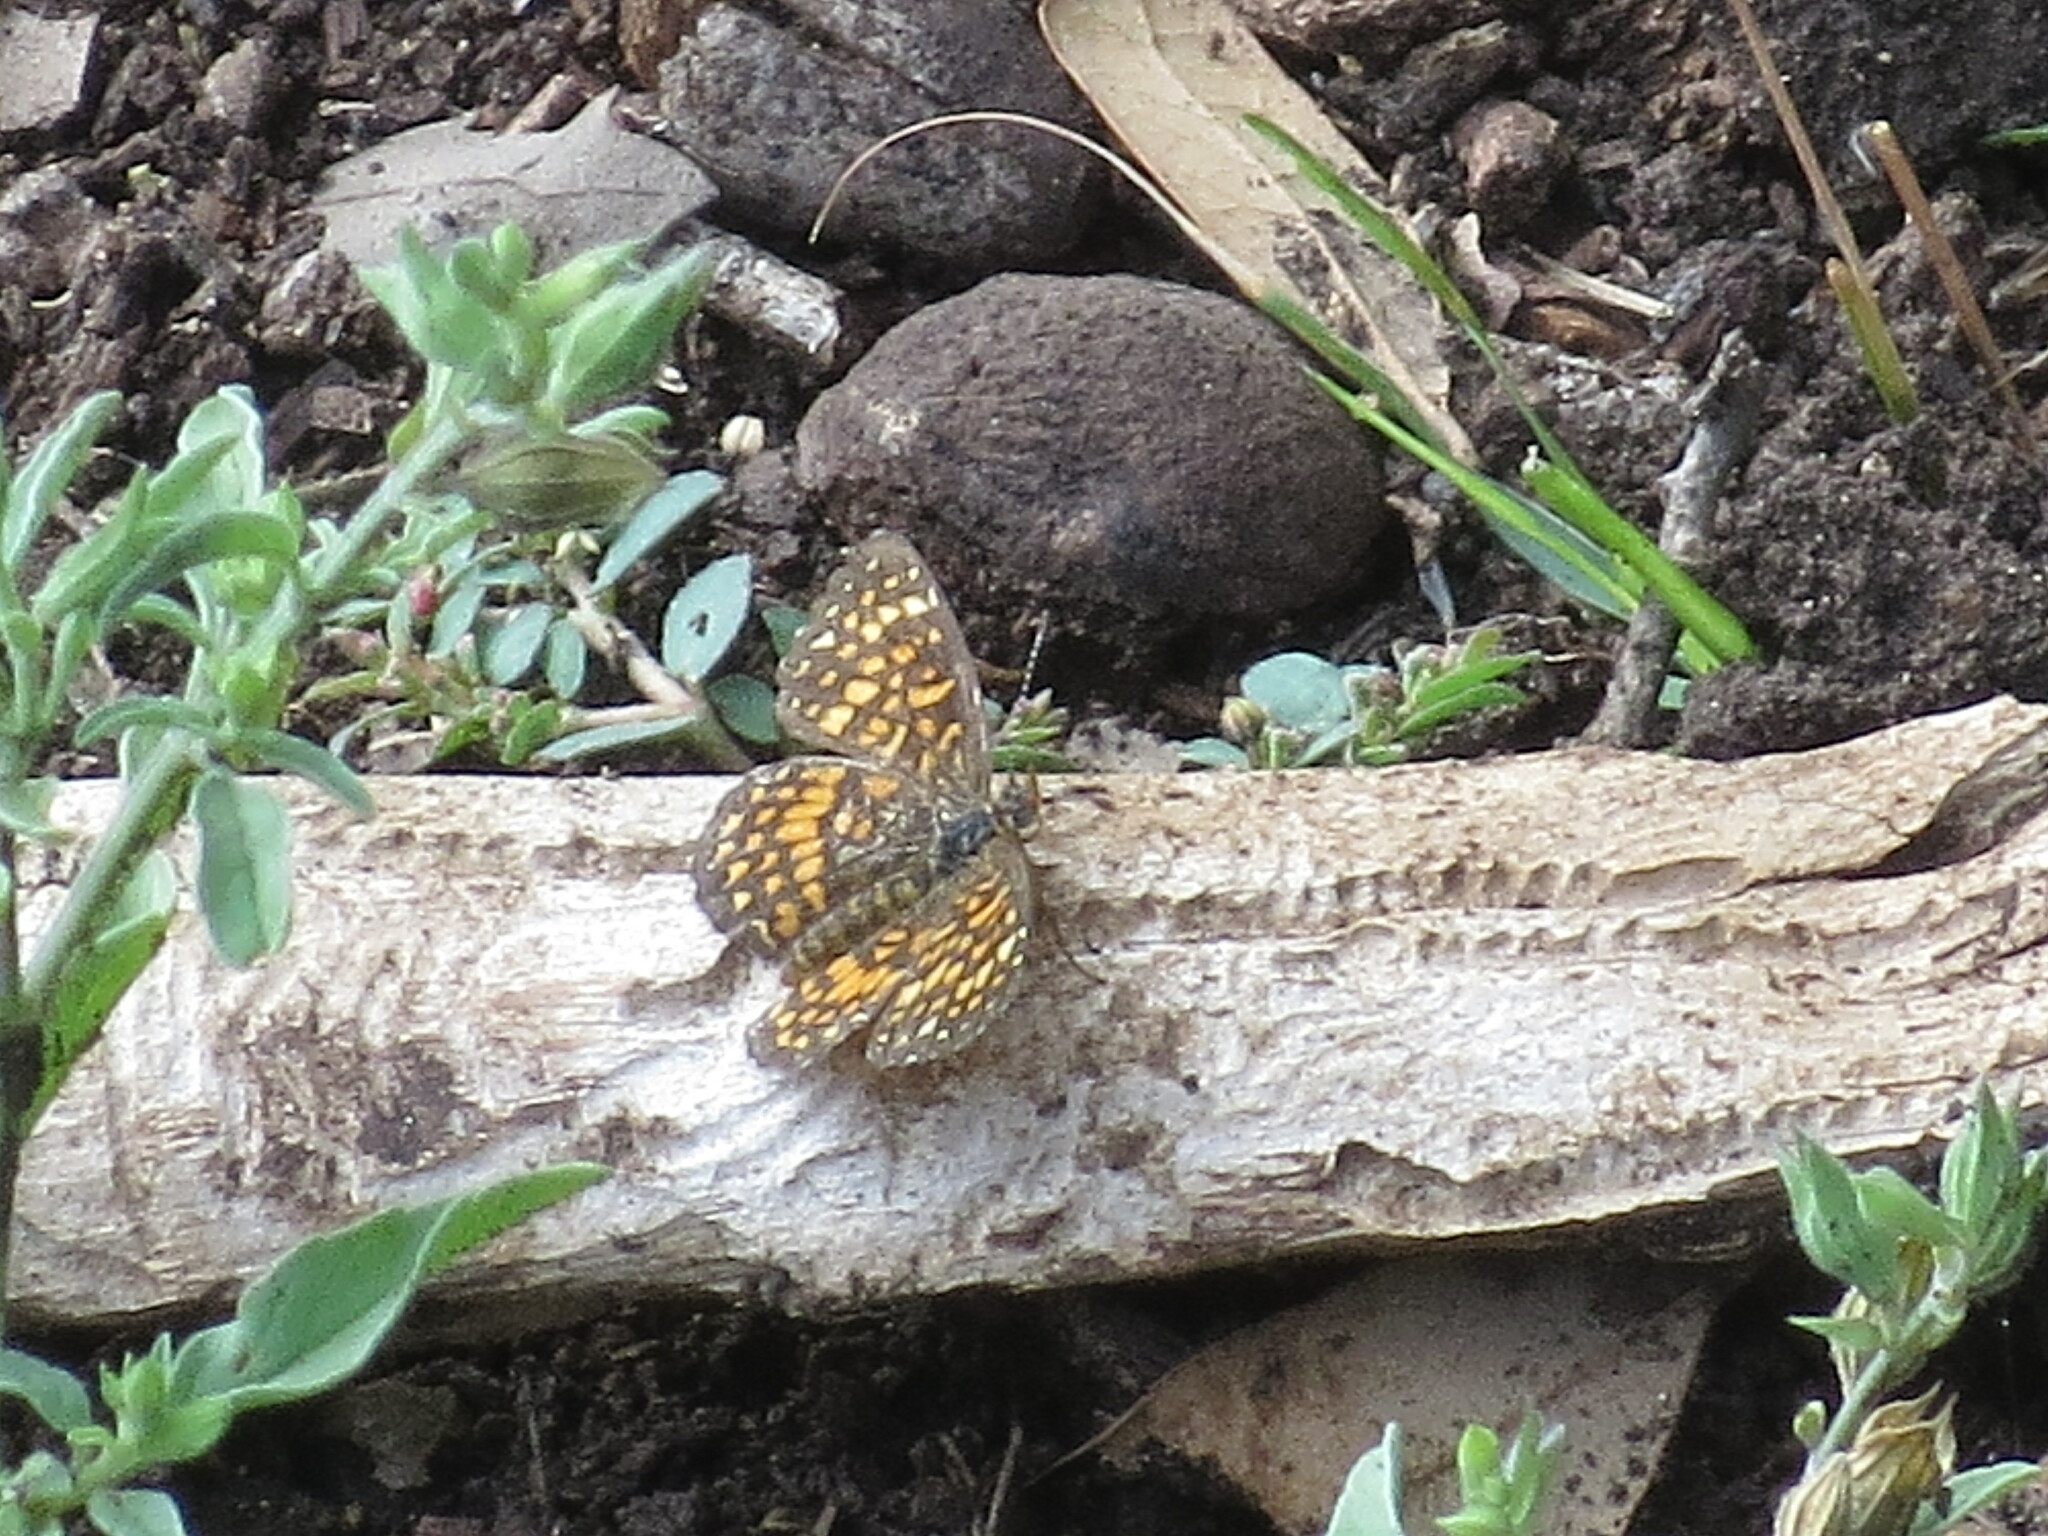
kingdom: Animalia
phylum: Arthropoda
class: Insecta
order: Lepidoptera
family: Nymphalidae
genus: Texola
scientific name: Texola elada
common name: Elada checkerspot
